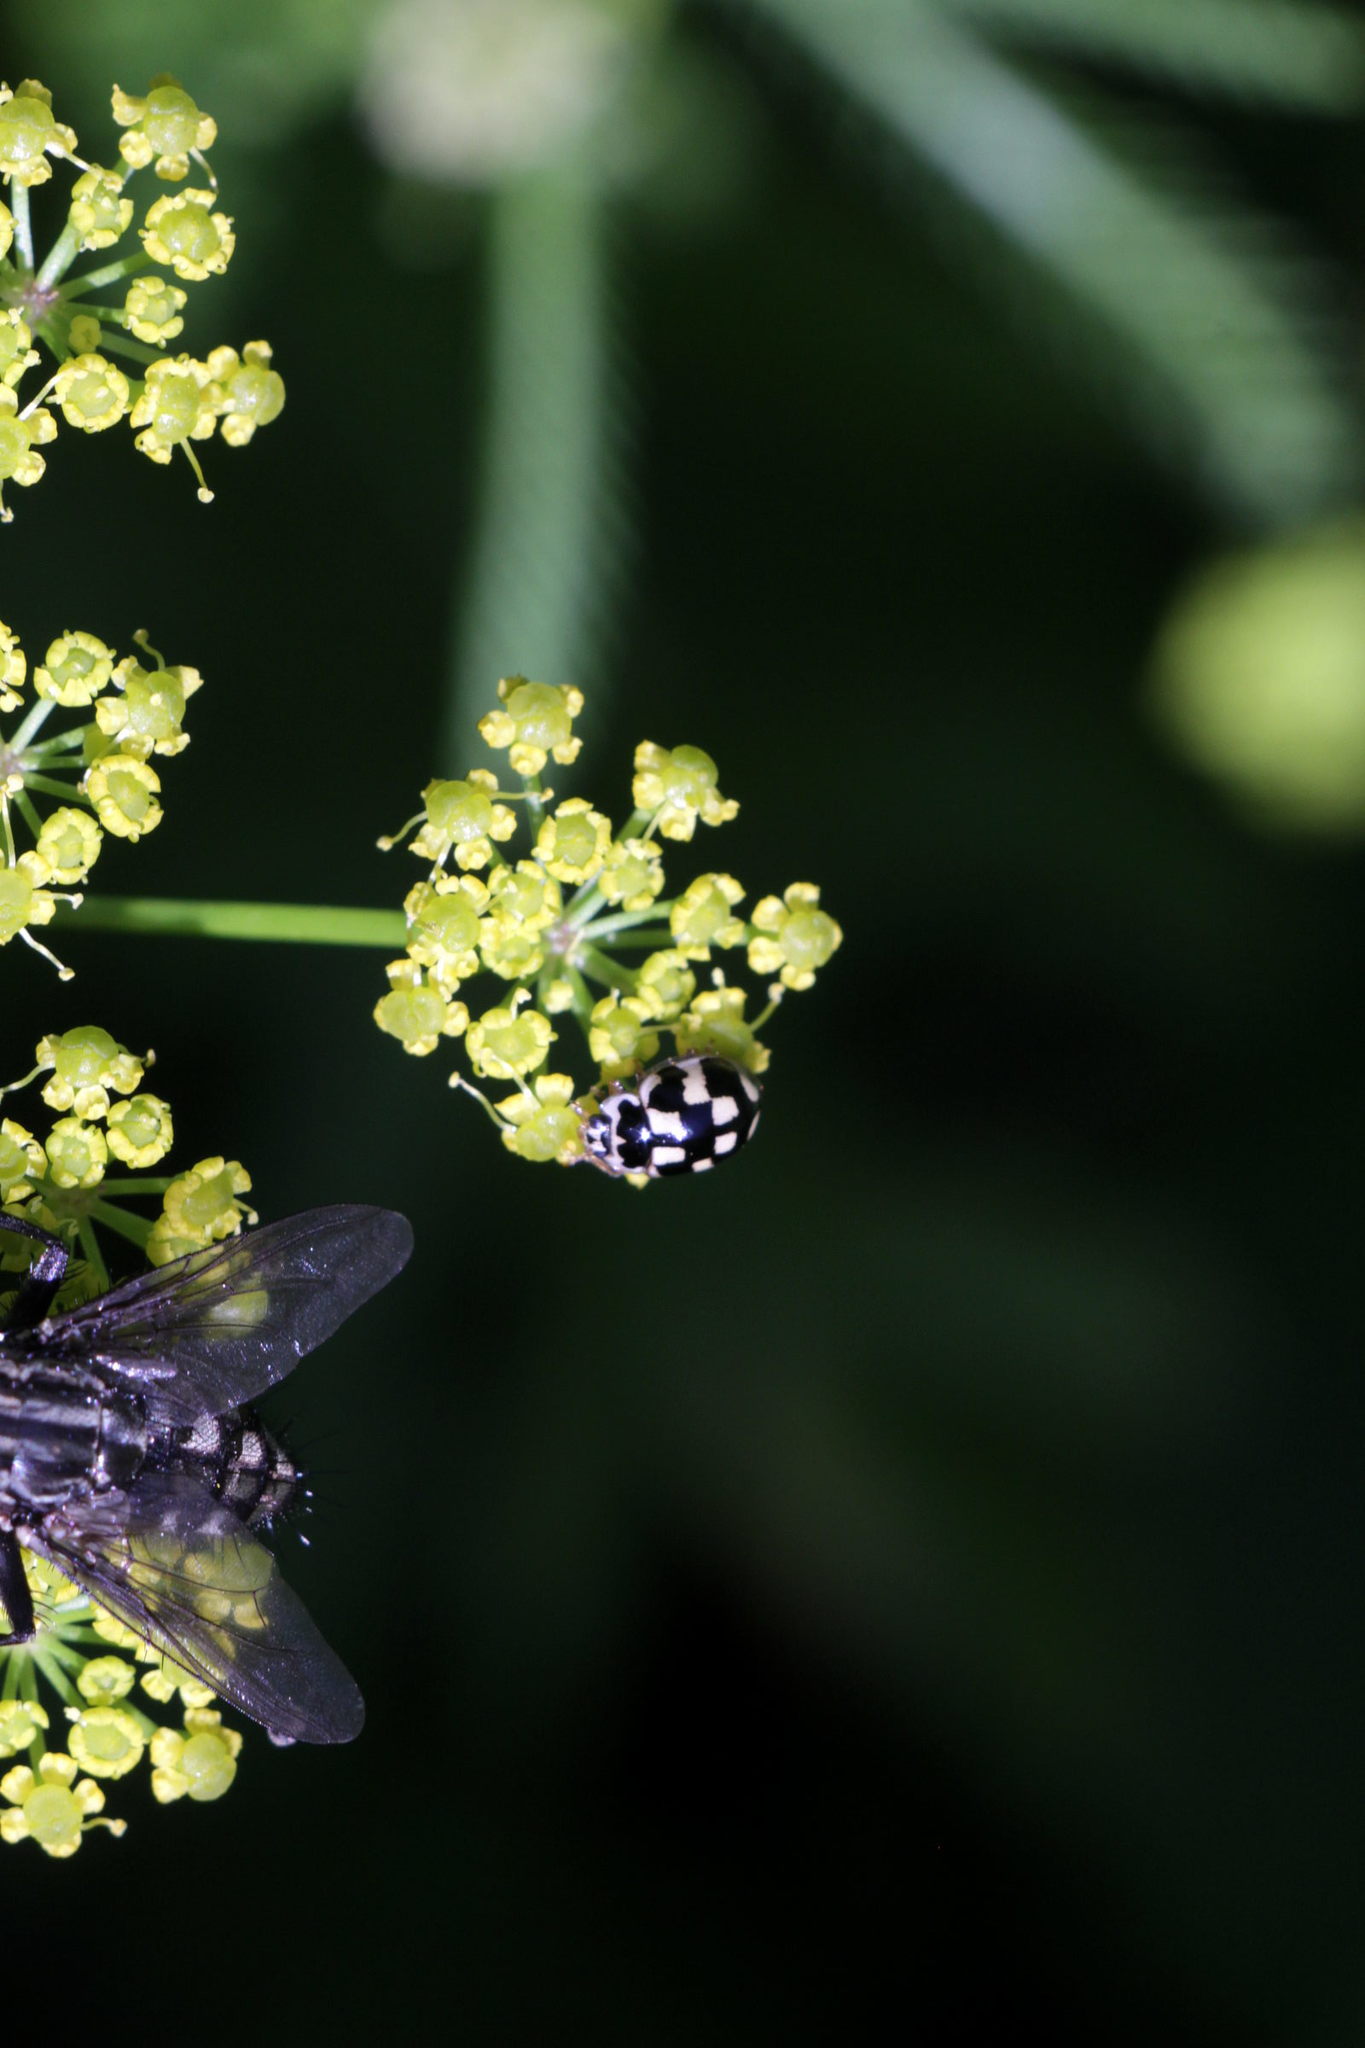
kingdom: Animalia
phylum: Arthropoda
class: Insecta
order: Coleoptera
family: Coccinellidae
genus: Propylaea
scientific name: Propylaea quatuordecimpunctata
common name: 14-spotted ladybird beetle
